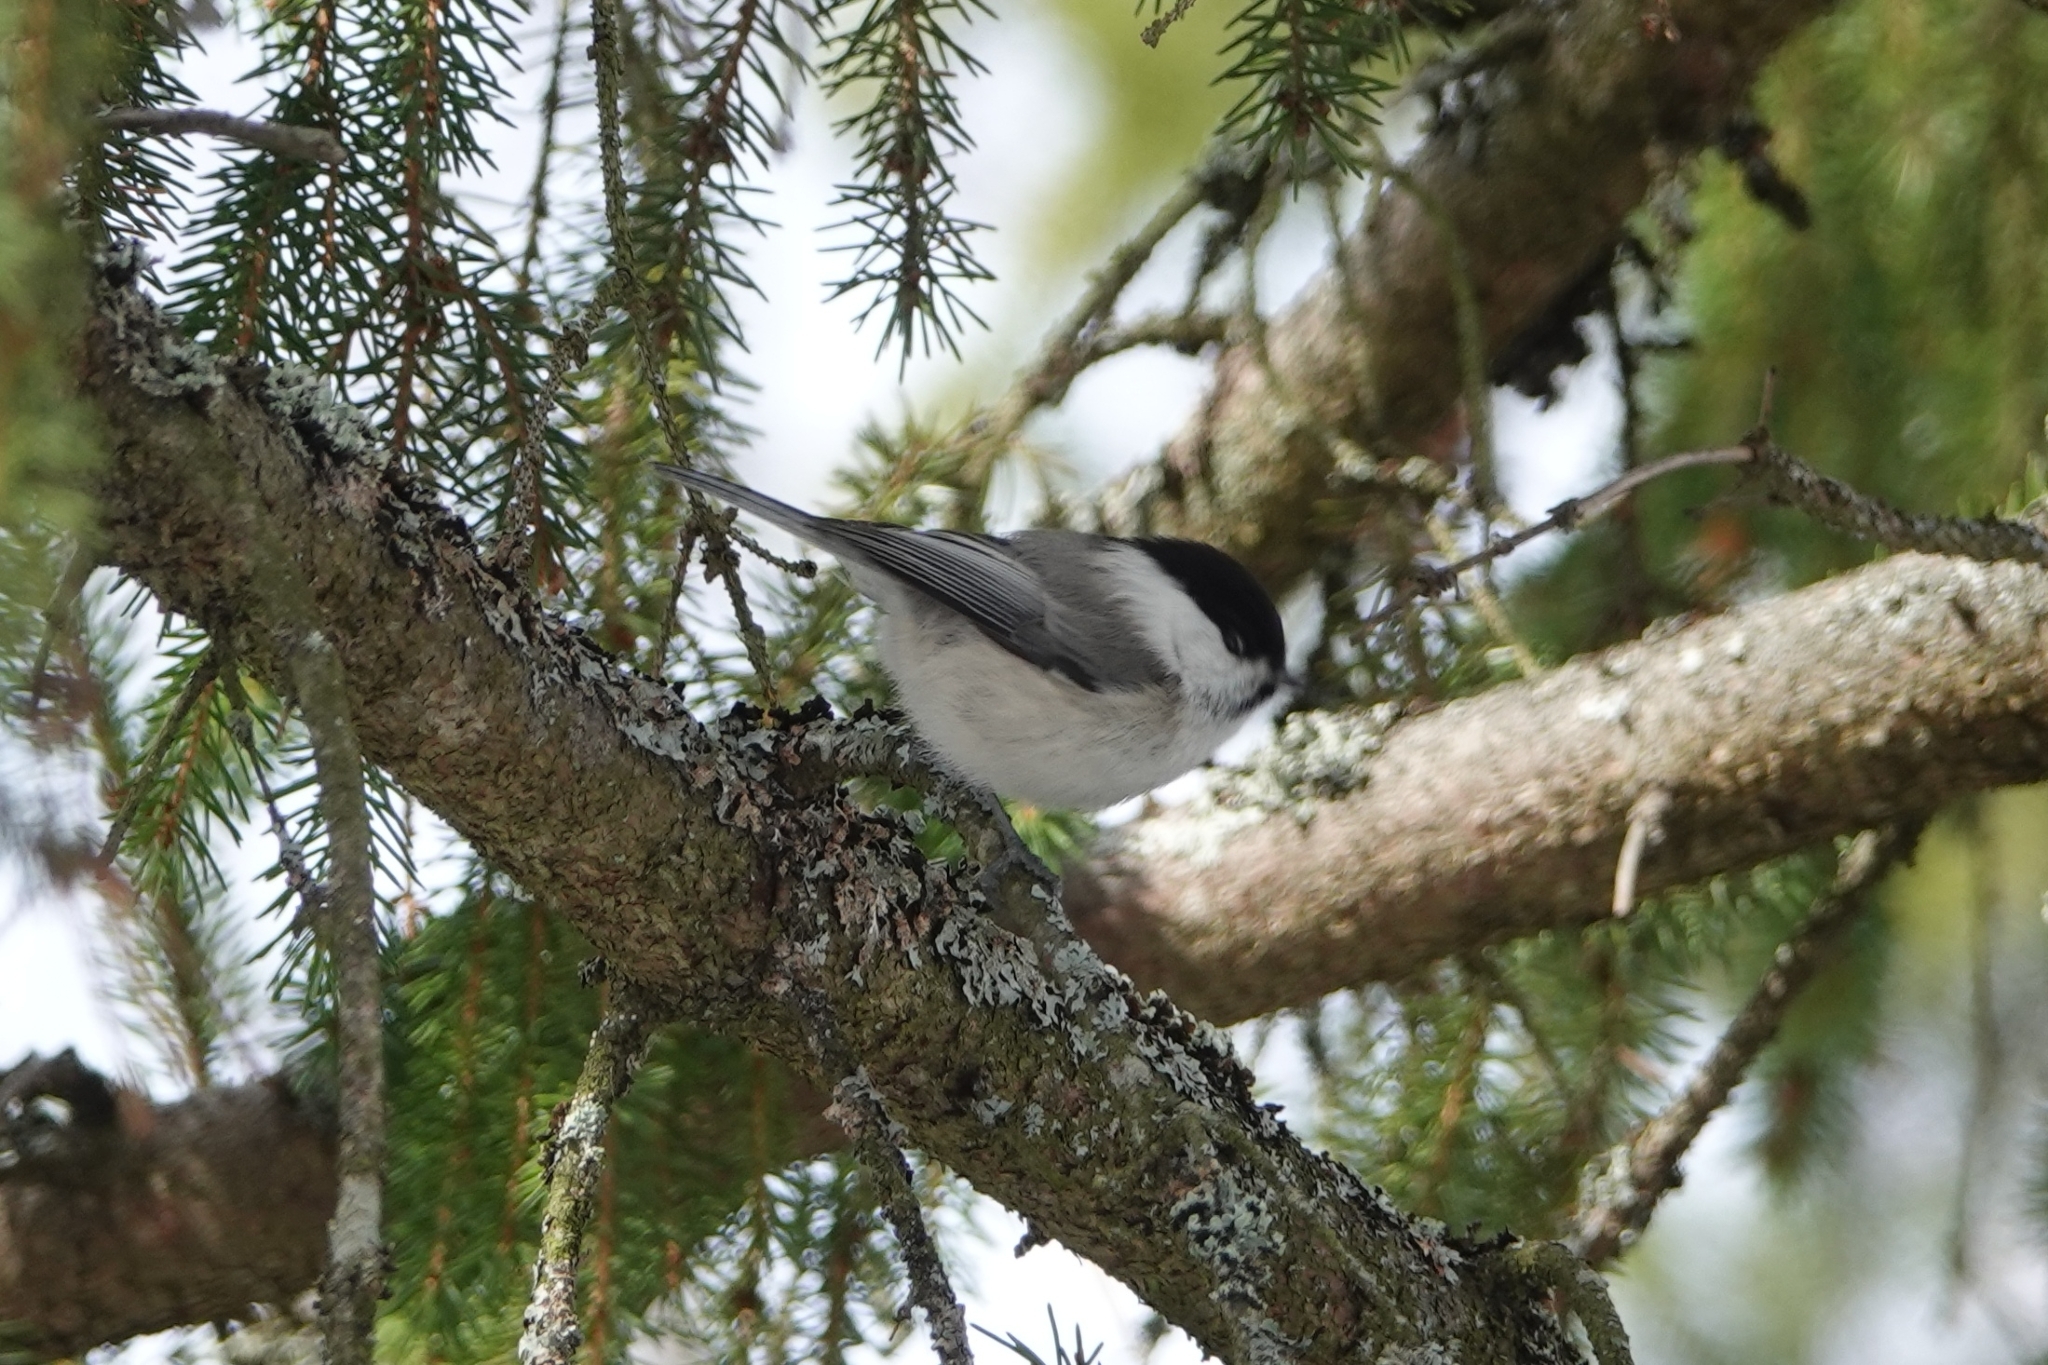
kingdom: Animalia
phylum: Chordata
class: Aves
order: Passeriformes
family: Paridae
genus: Poecile
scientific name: Poecile montanus
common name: Willow tit
